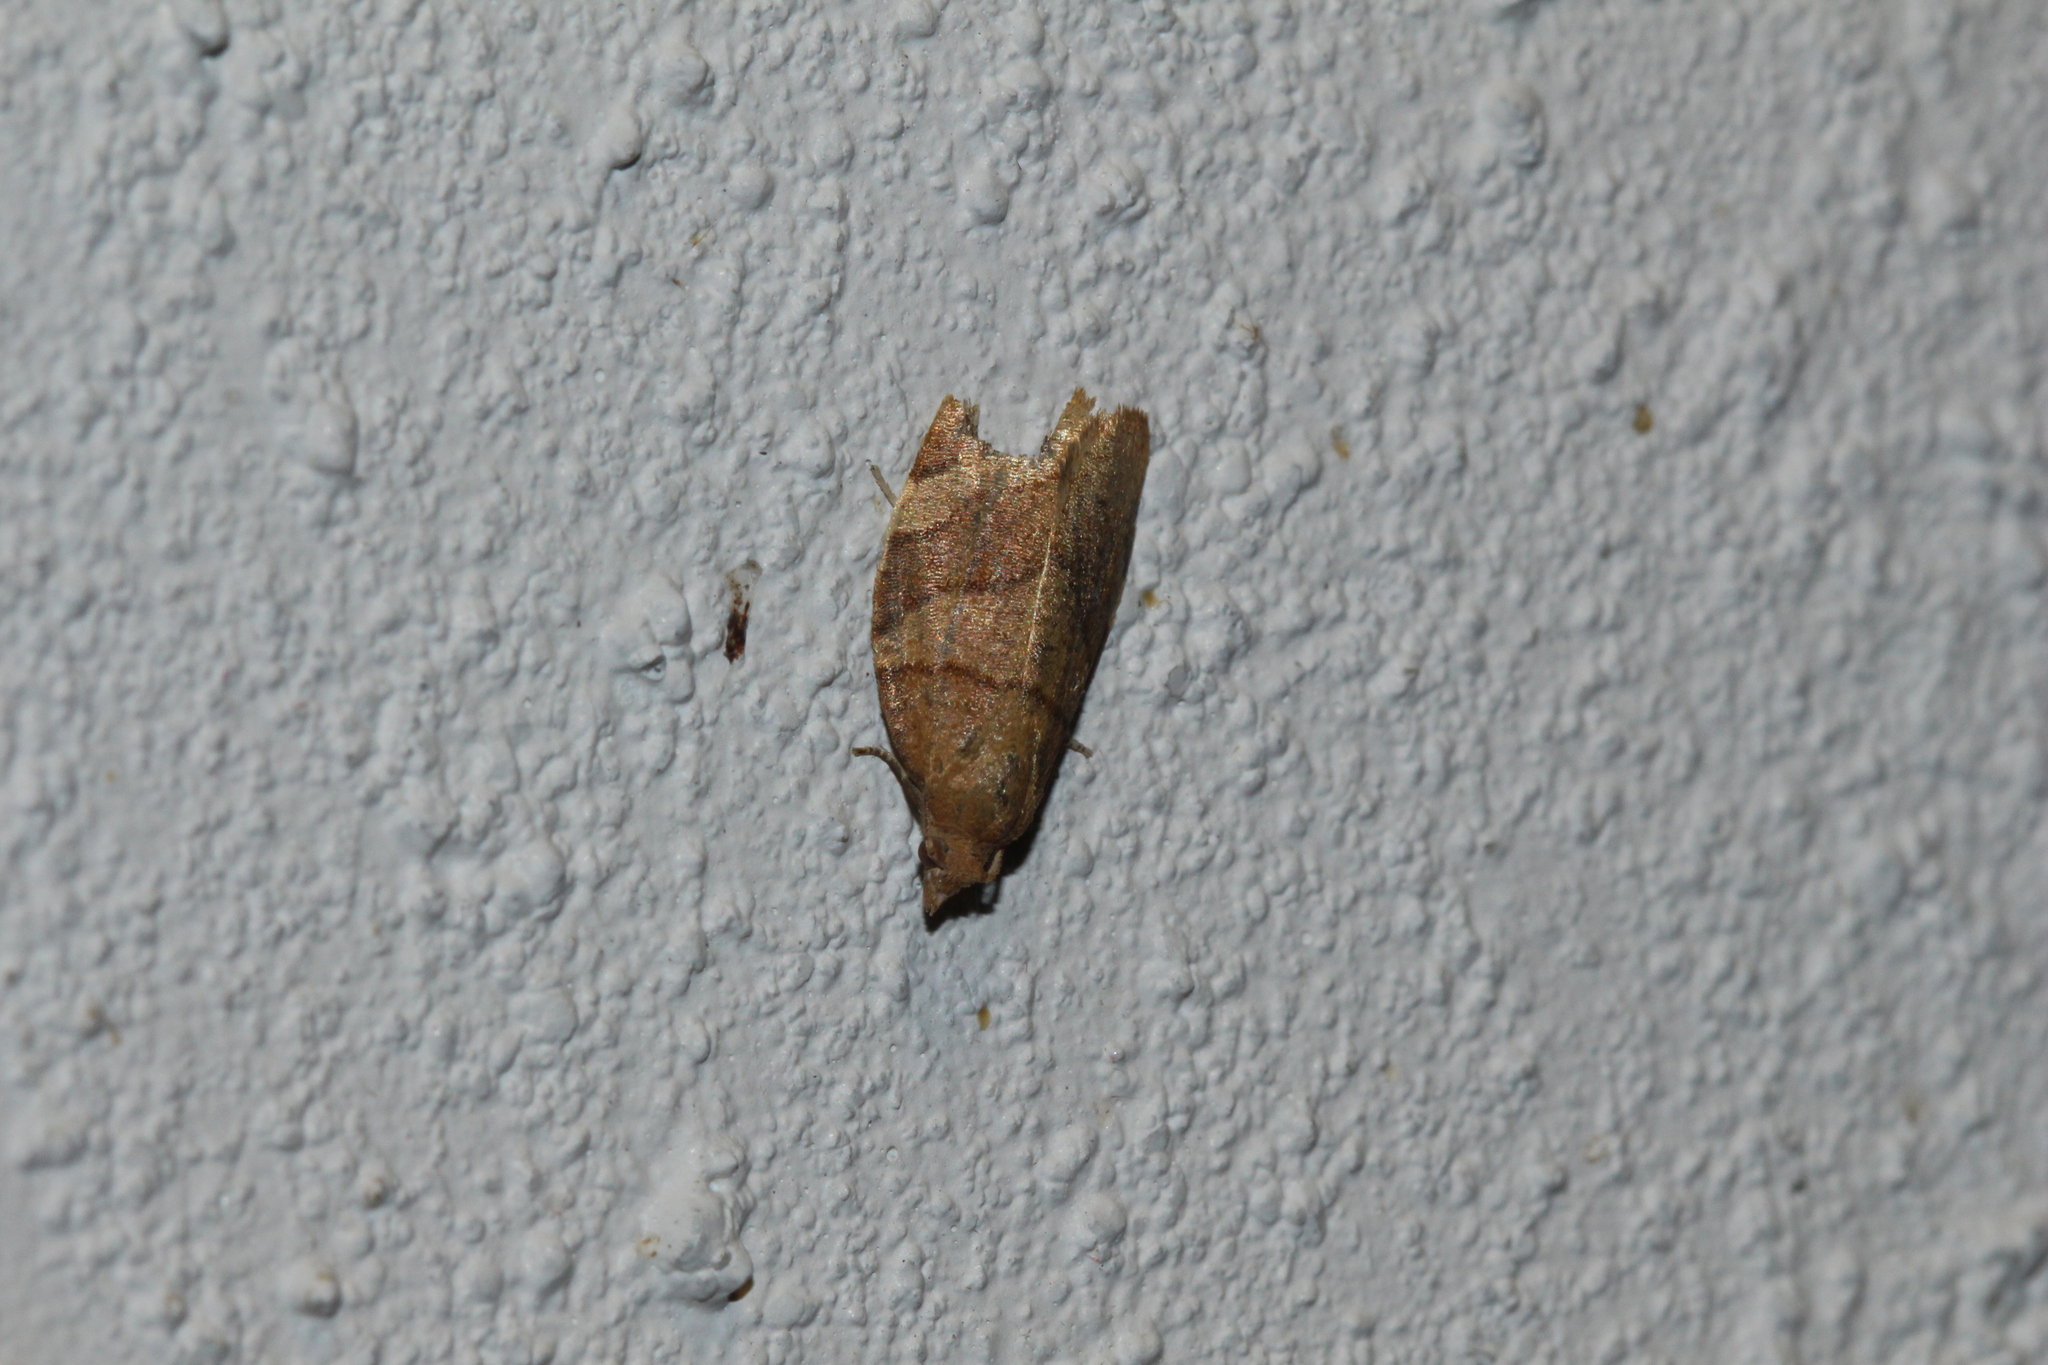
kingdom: Animalia
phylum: Arthropoda
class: Insecta
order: Lepidoptera
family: Tortricidae
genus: Pandemis
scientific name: Pandemis cerasana
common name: Barred fruit-tree tortrix
